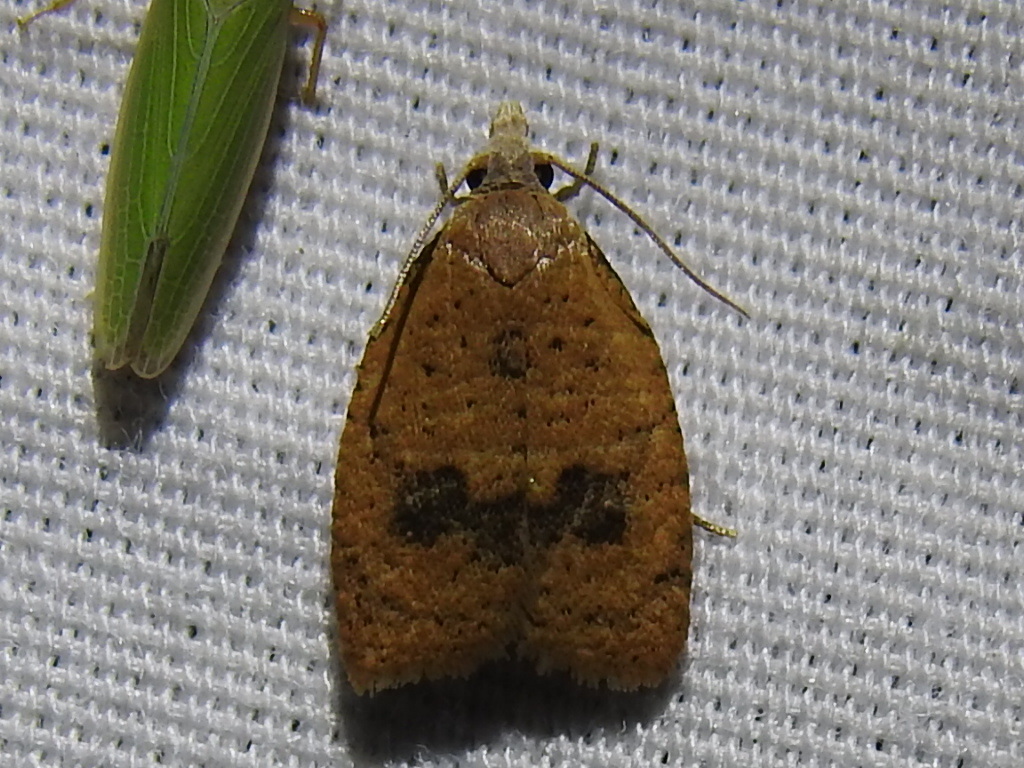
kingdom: Animalia
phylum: Arthropoda
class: Insecta
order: Lepidoptera
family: Tortricidae
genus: Sparganothoides
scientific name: Sparganothoides lentiginosana
